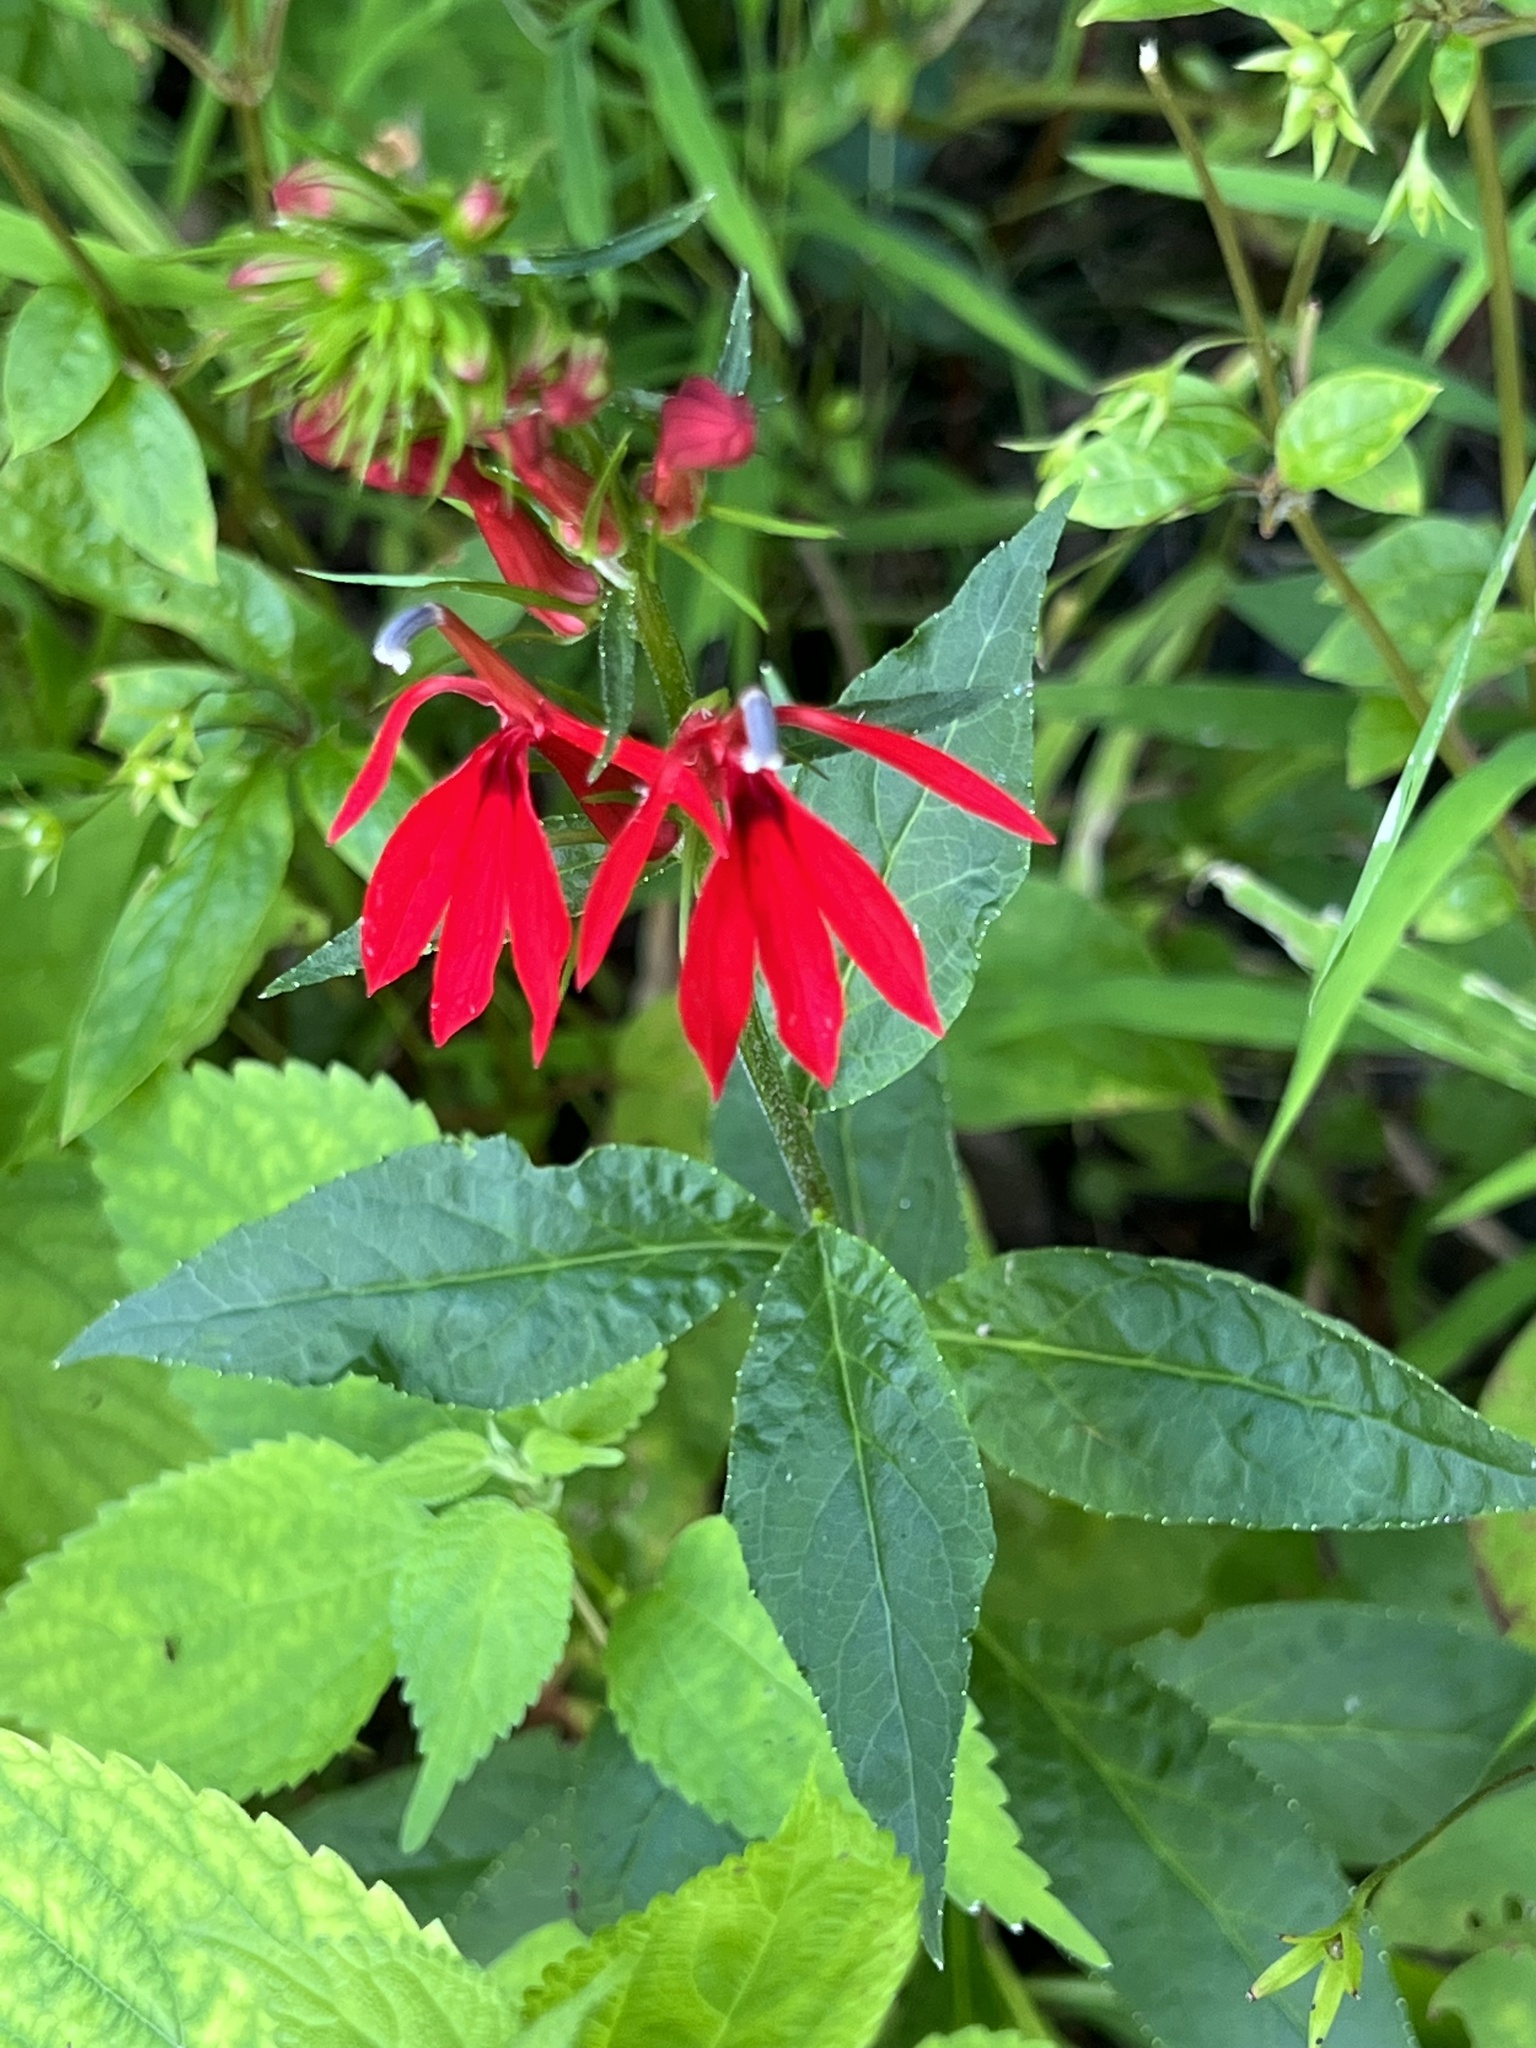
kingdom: Plantae
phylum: Tracheophyta
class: Magnoliopsida
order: Asterales
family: Campanulaceae
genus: Lobelia
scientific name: Lobelia cardinalis
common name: Cardinal flower
